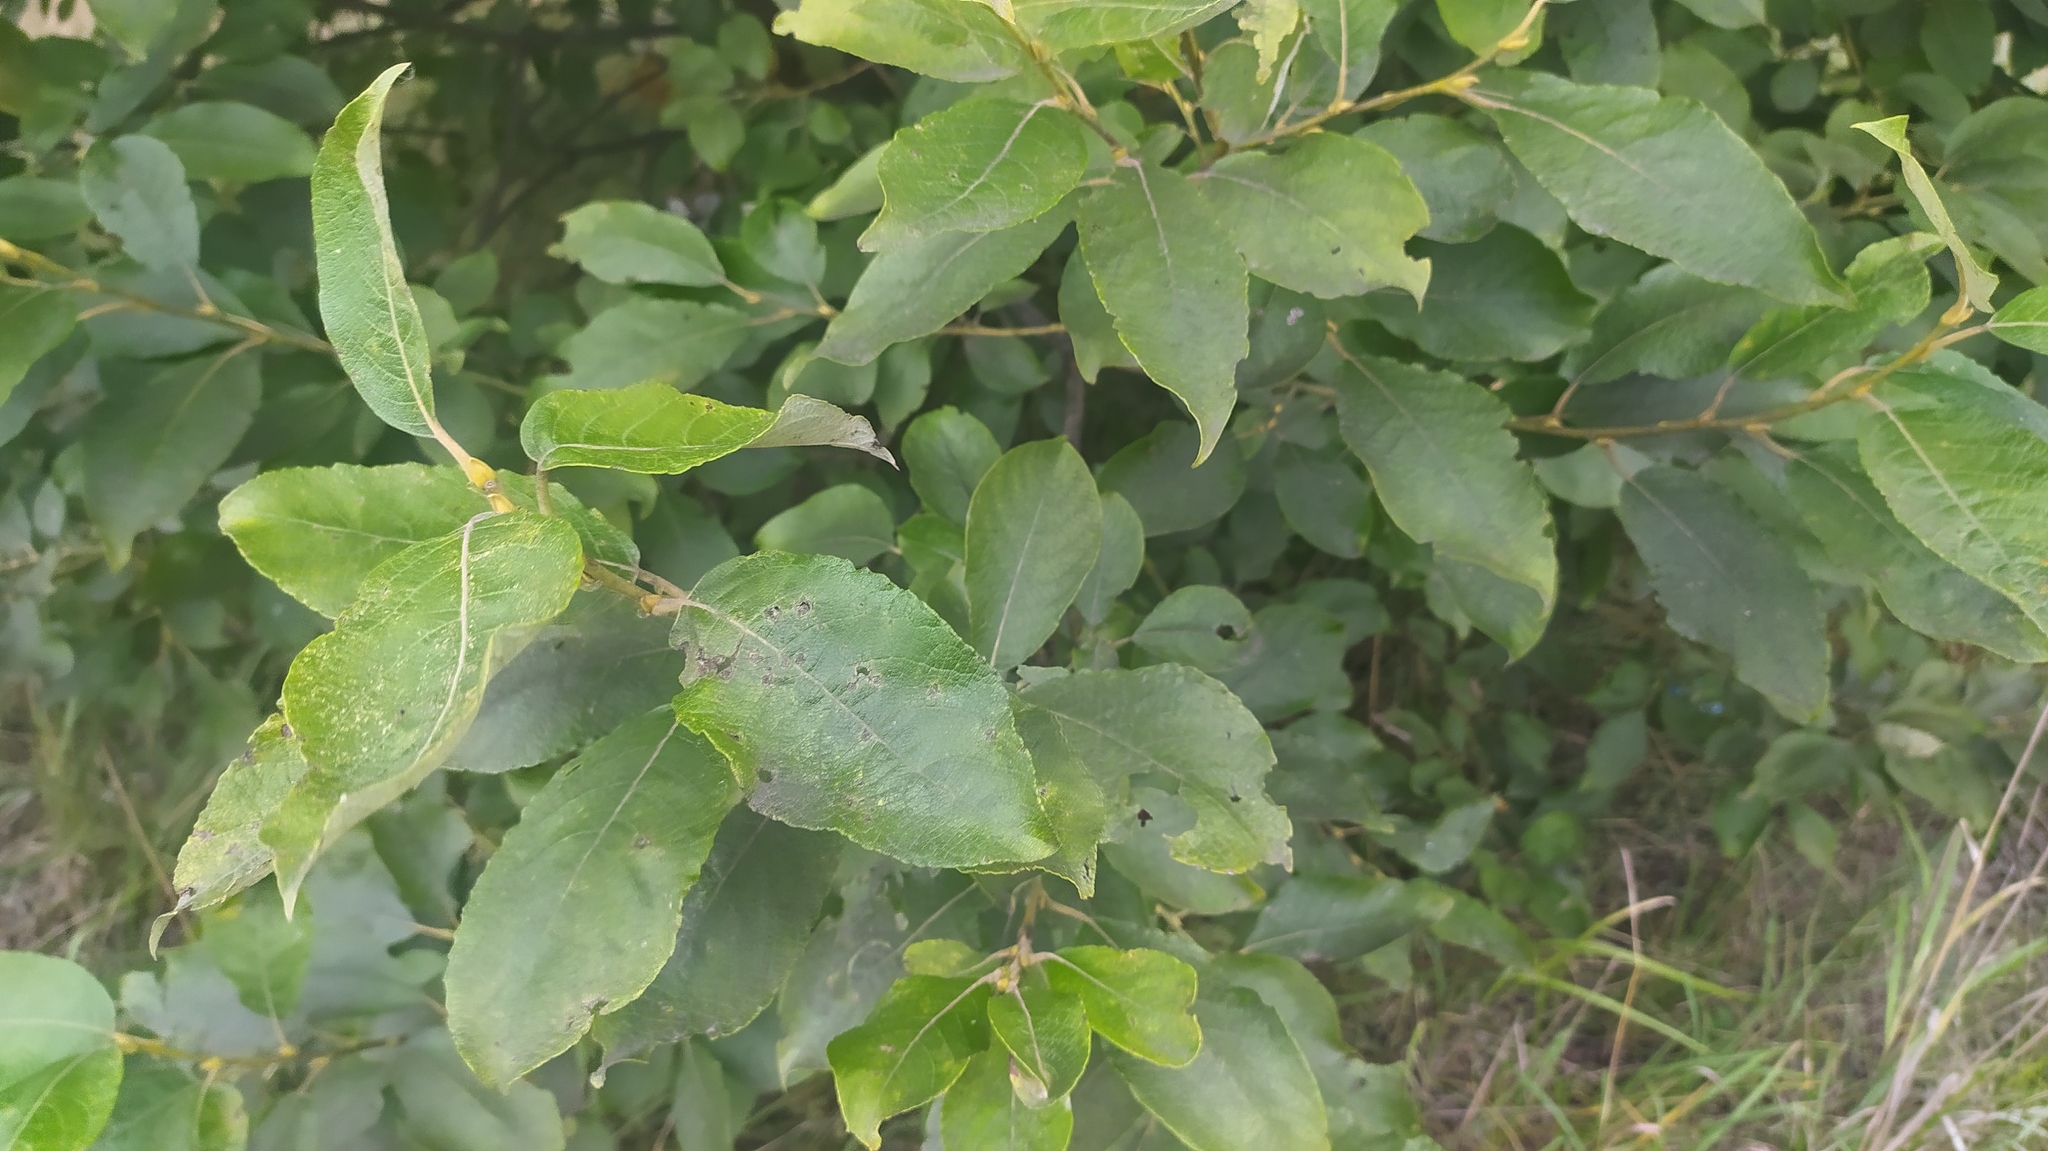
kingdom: Plantae
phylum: Tracheophyta
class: Magnoliopsida
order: Malpighiales
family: Salicaceae
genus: Salix
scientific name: Salix caprea
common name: Goat willow
